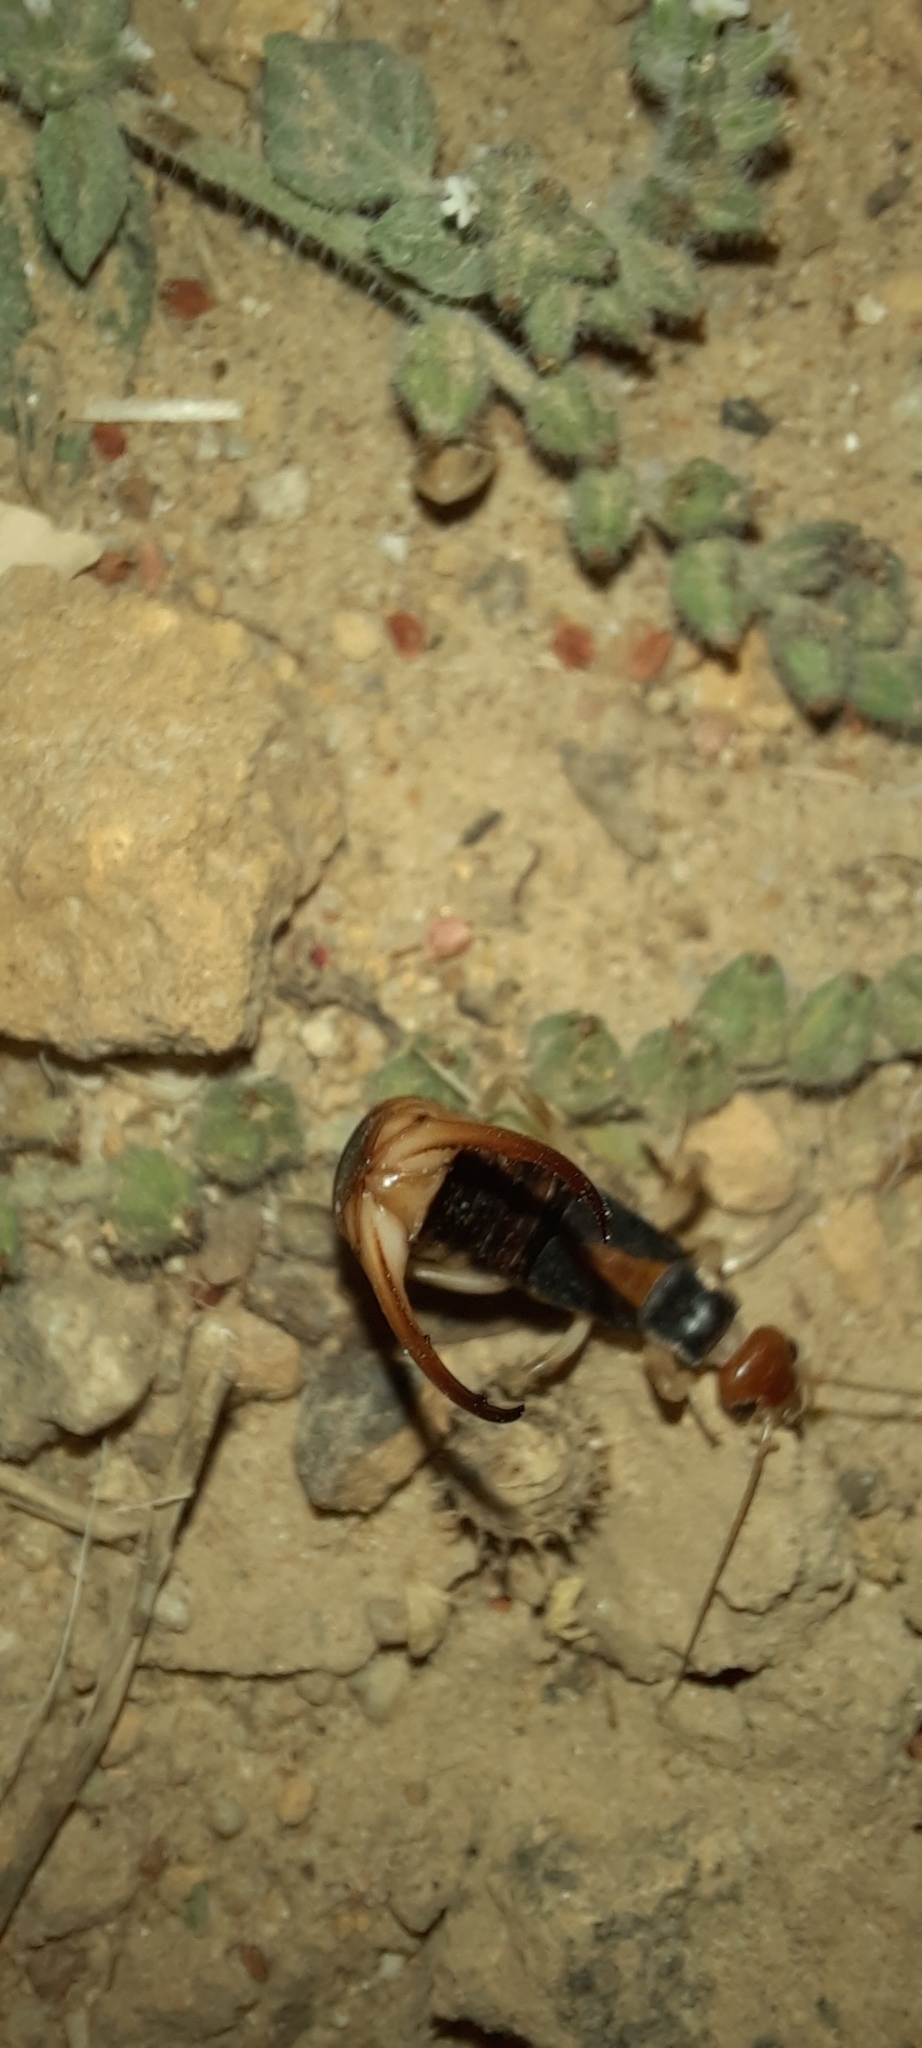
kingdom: Animalia
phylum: Arthropoda
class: Insecta
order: Dermaptera
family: Labiduridae
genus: Labidura
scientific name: Labidura riparia
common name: Striped earwig
